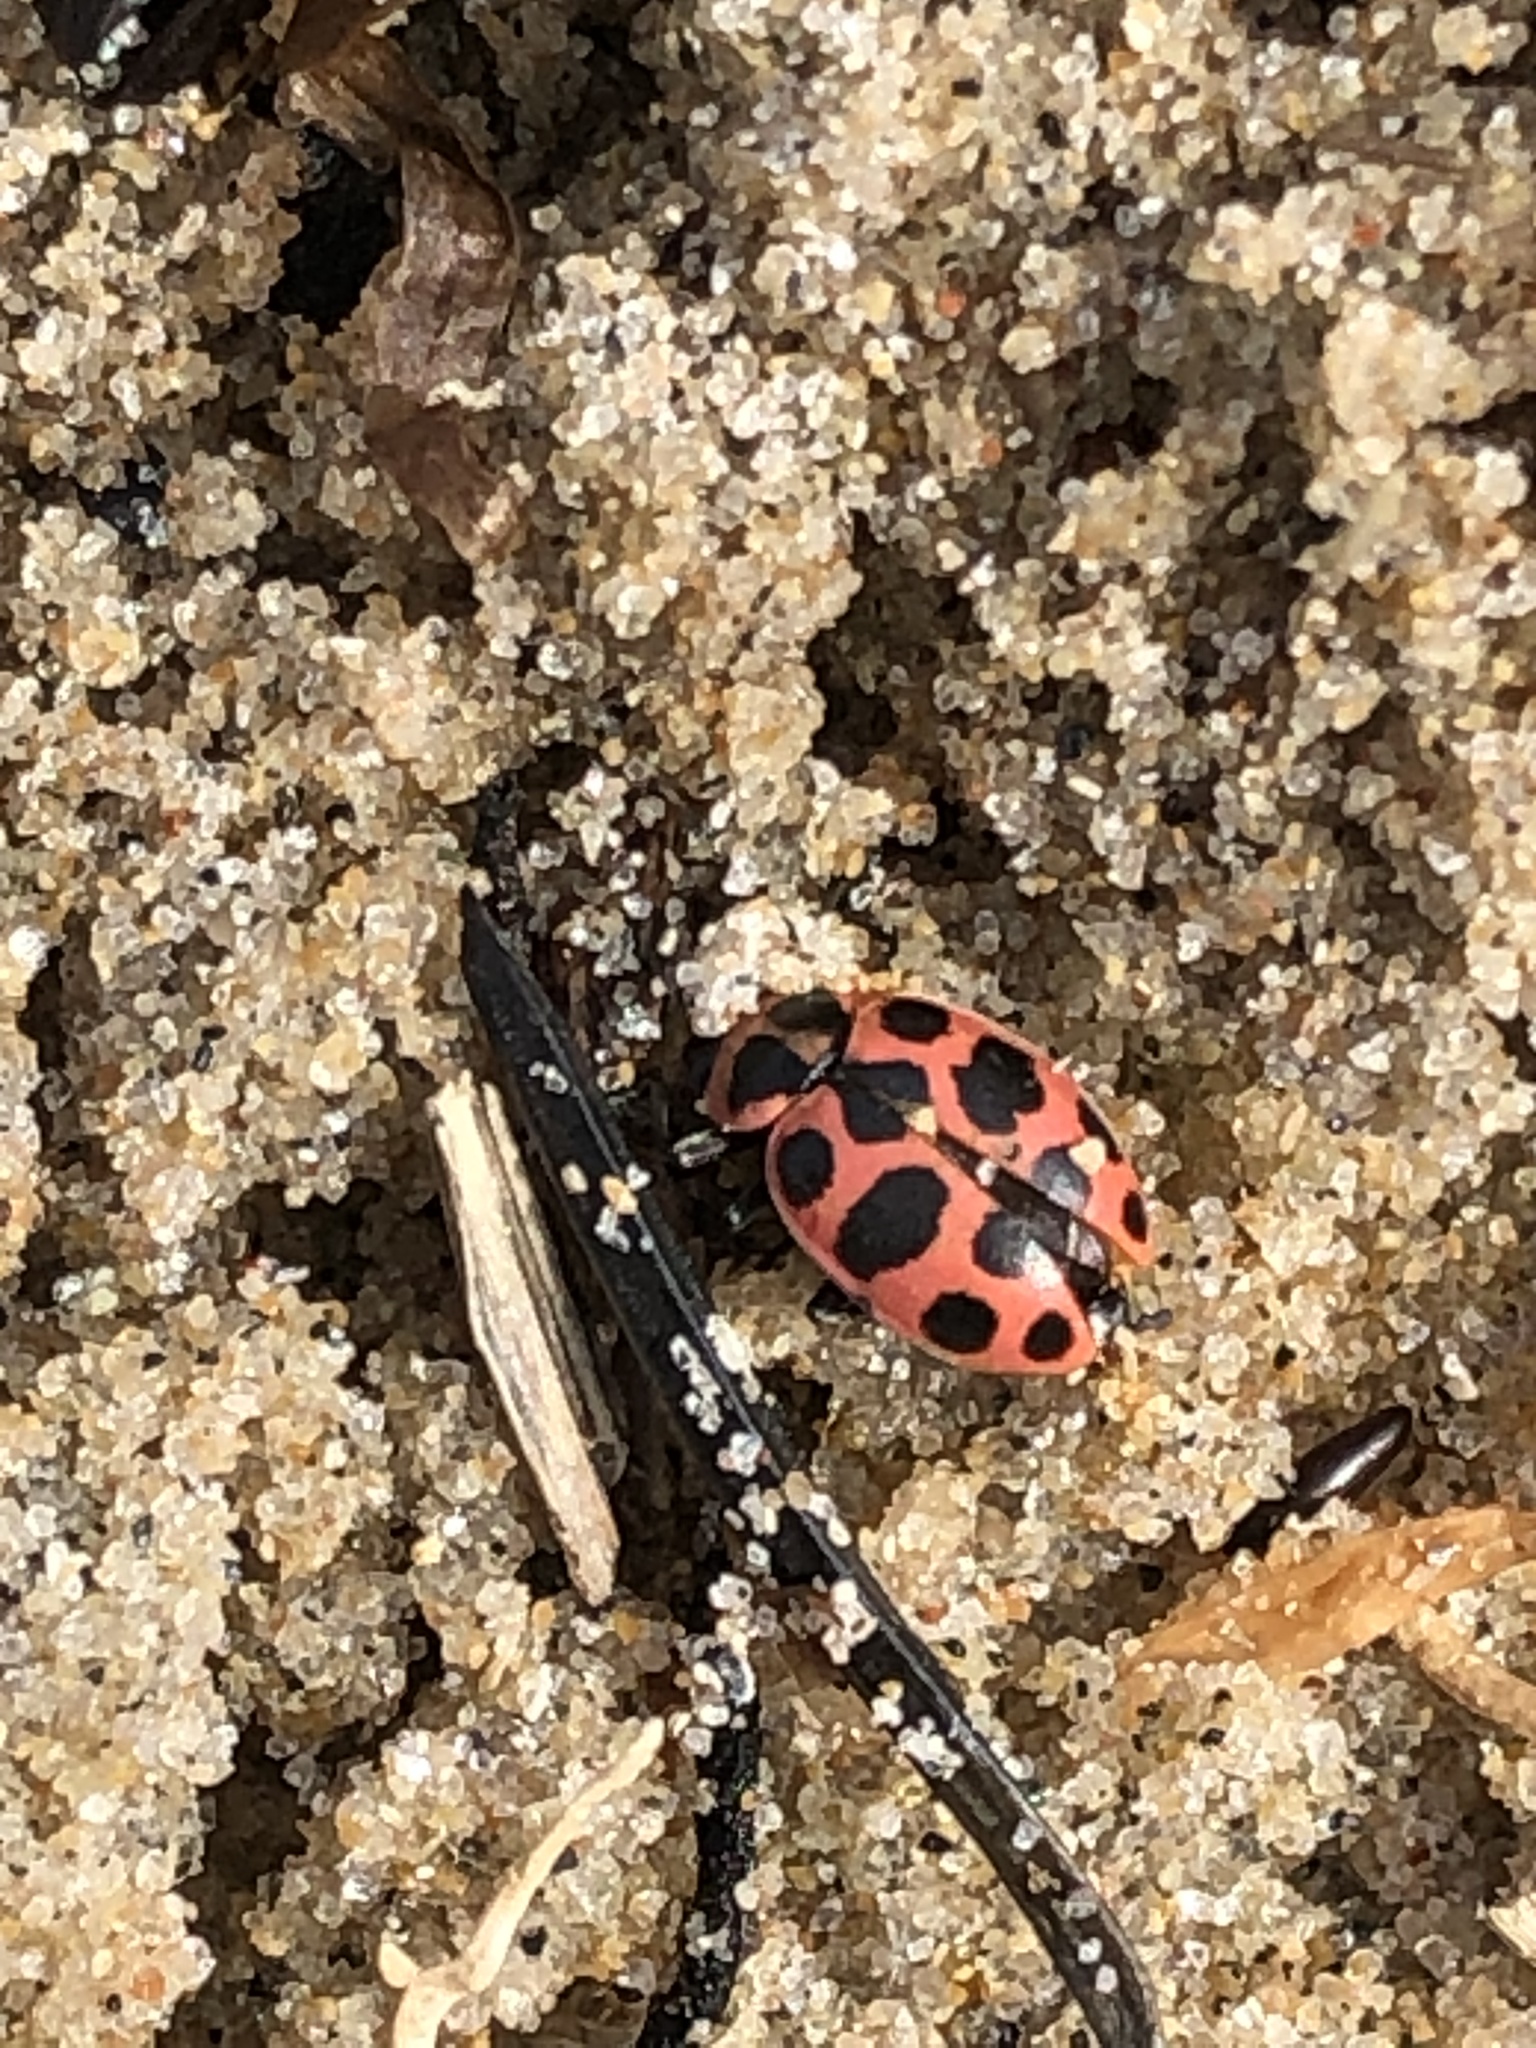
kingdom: Animalia
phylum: Arthropoda
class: Insecta
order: Coleoptera
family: Coccinellidae
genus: Coleomegilla
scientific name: Coleomegilla maculata
